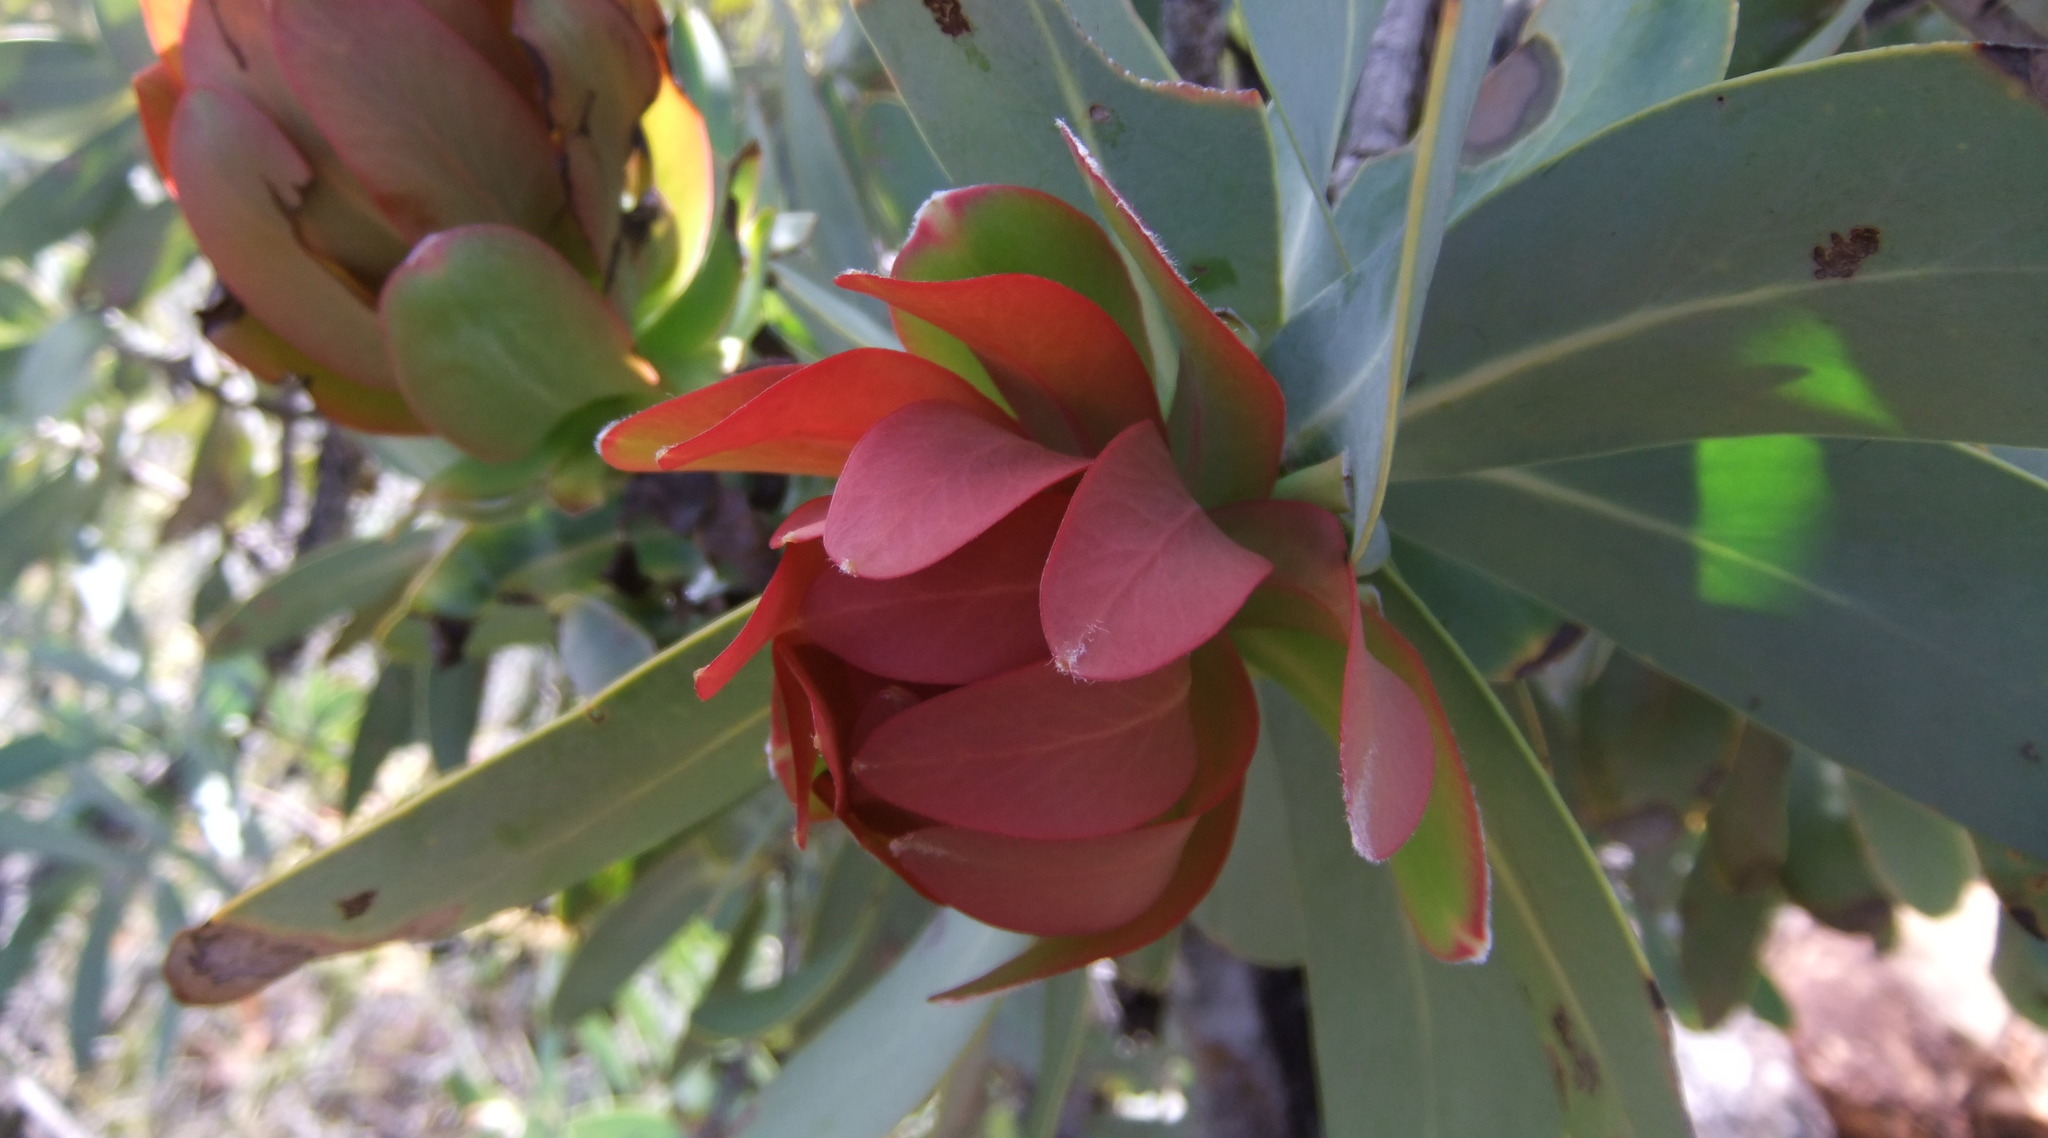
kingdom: Plantae
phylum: Tracheophyta
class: Magnoliopsida
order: Proteales
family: Proteaceae
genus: Protea
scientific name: Protea nitida
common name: Tree protea
